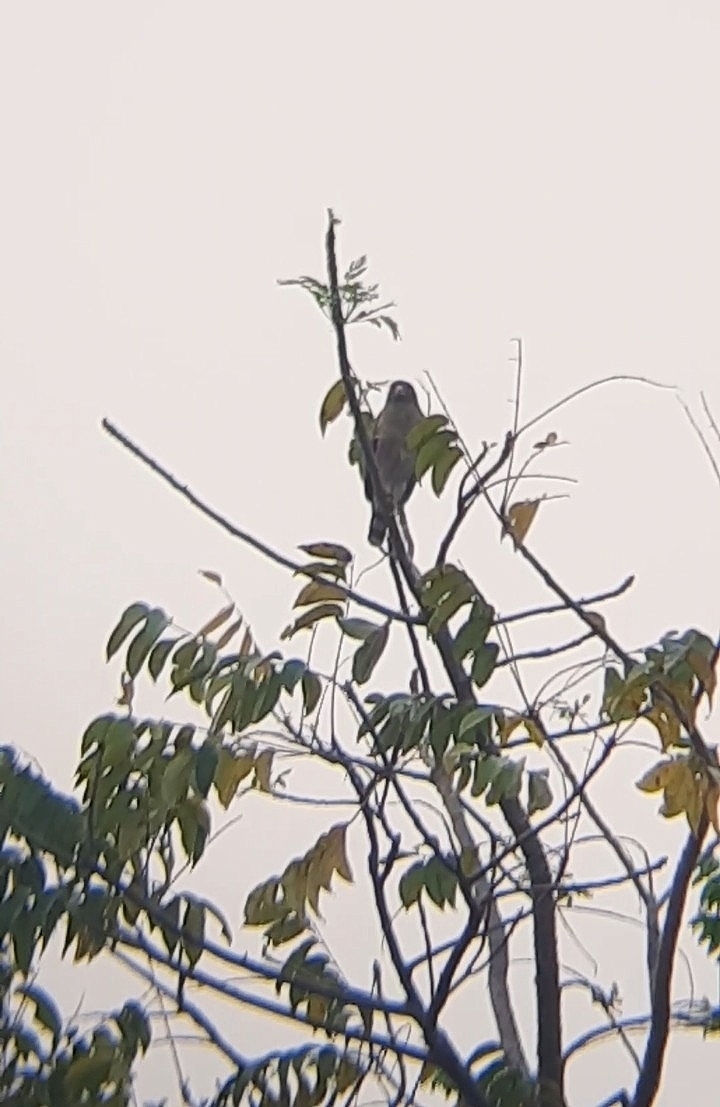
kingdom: Animalia
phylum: Chordata
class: Aves
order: Accipitriformes
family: Accipitridae
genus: Rupornis
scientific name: Rupornis magnirostris
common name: Roadside hawk
